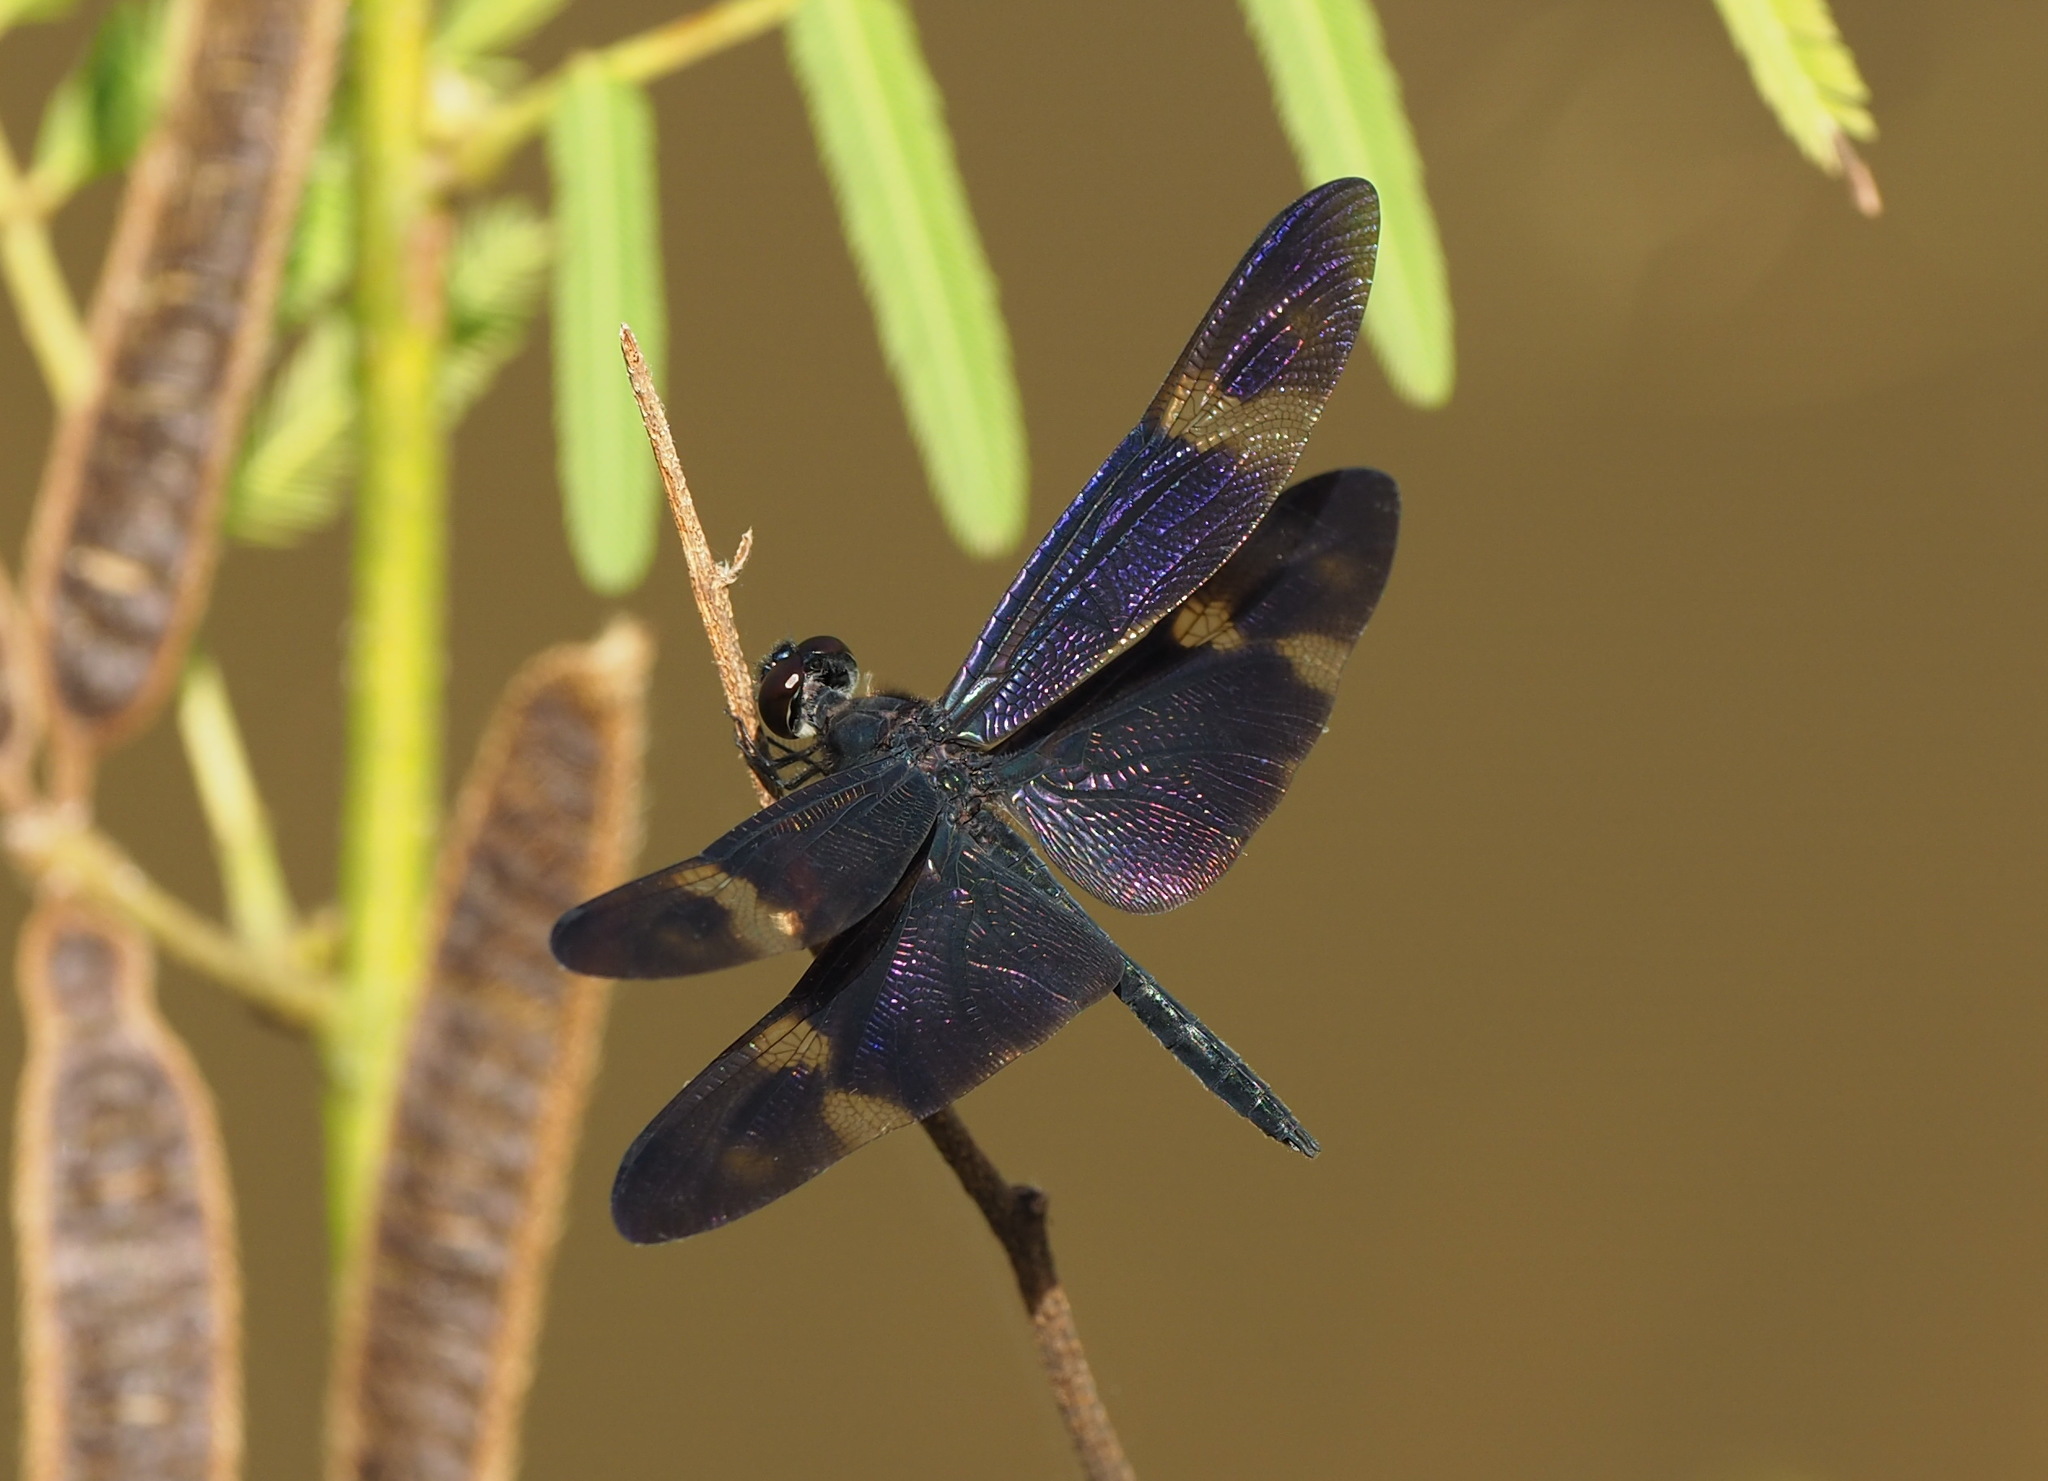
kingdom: Animalia
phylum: Arthropoda
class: Insecta
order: Odonata
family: Libellulidae
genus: Rhyothemis
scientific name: Rhyothemis regia
